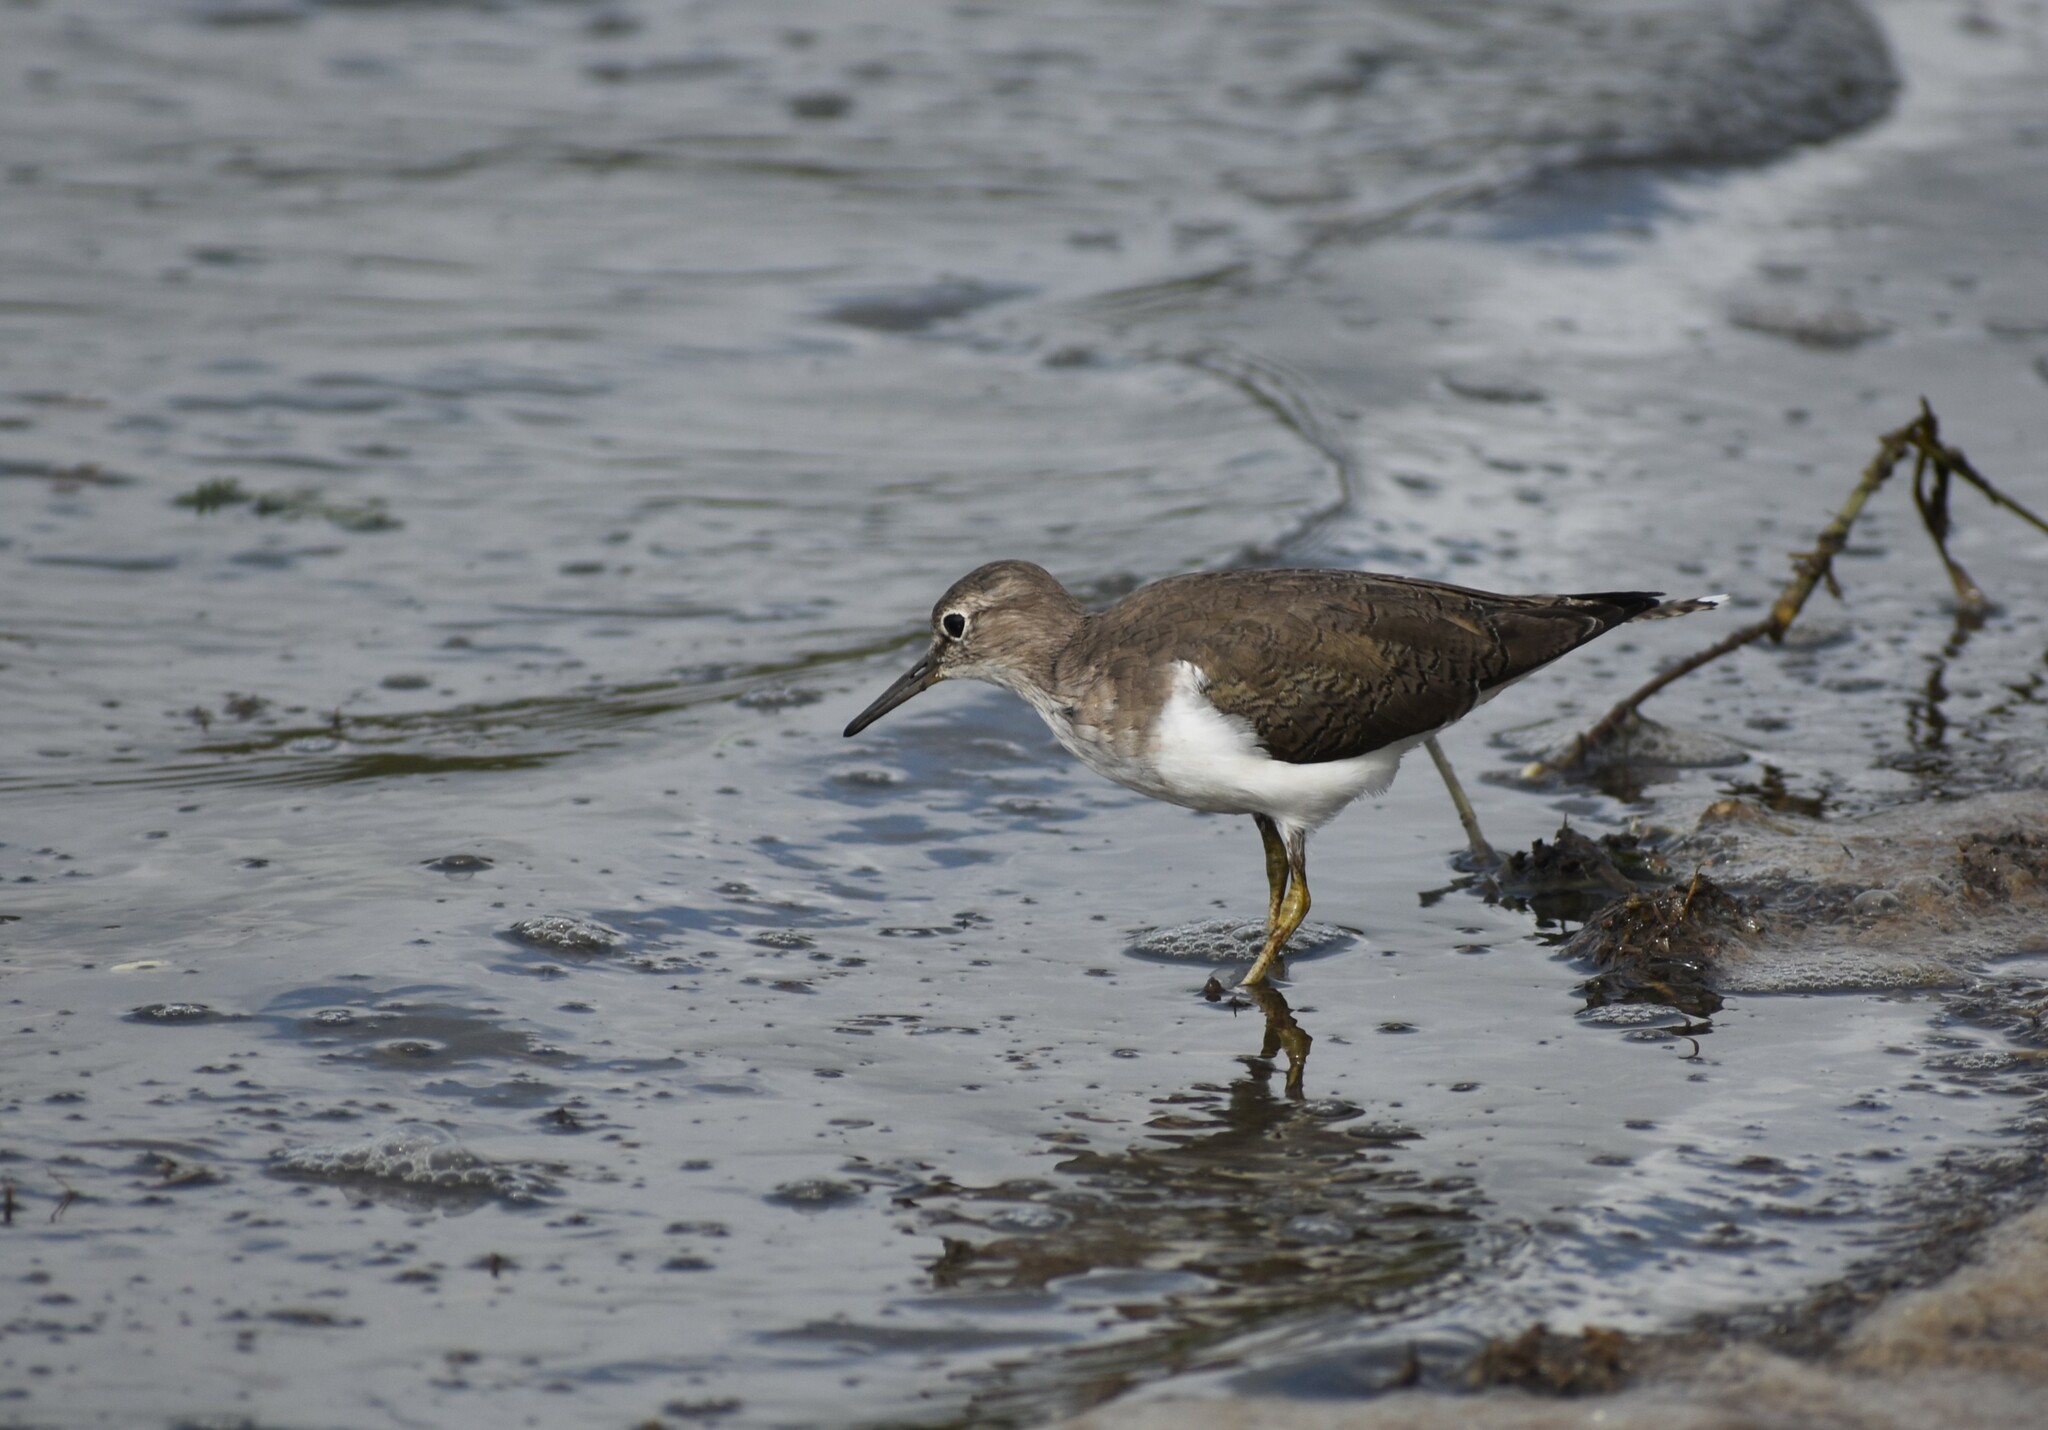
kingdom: Animalia
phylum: Chordata
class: Aves
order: Charadriiformes
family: Scolopacidae
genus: Actitis
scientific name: Actitis hypoleucos
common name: Common sandpiper
